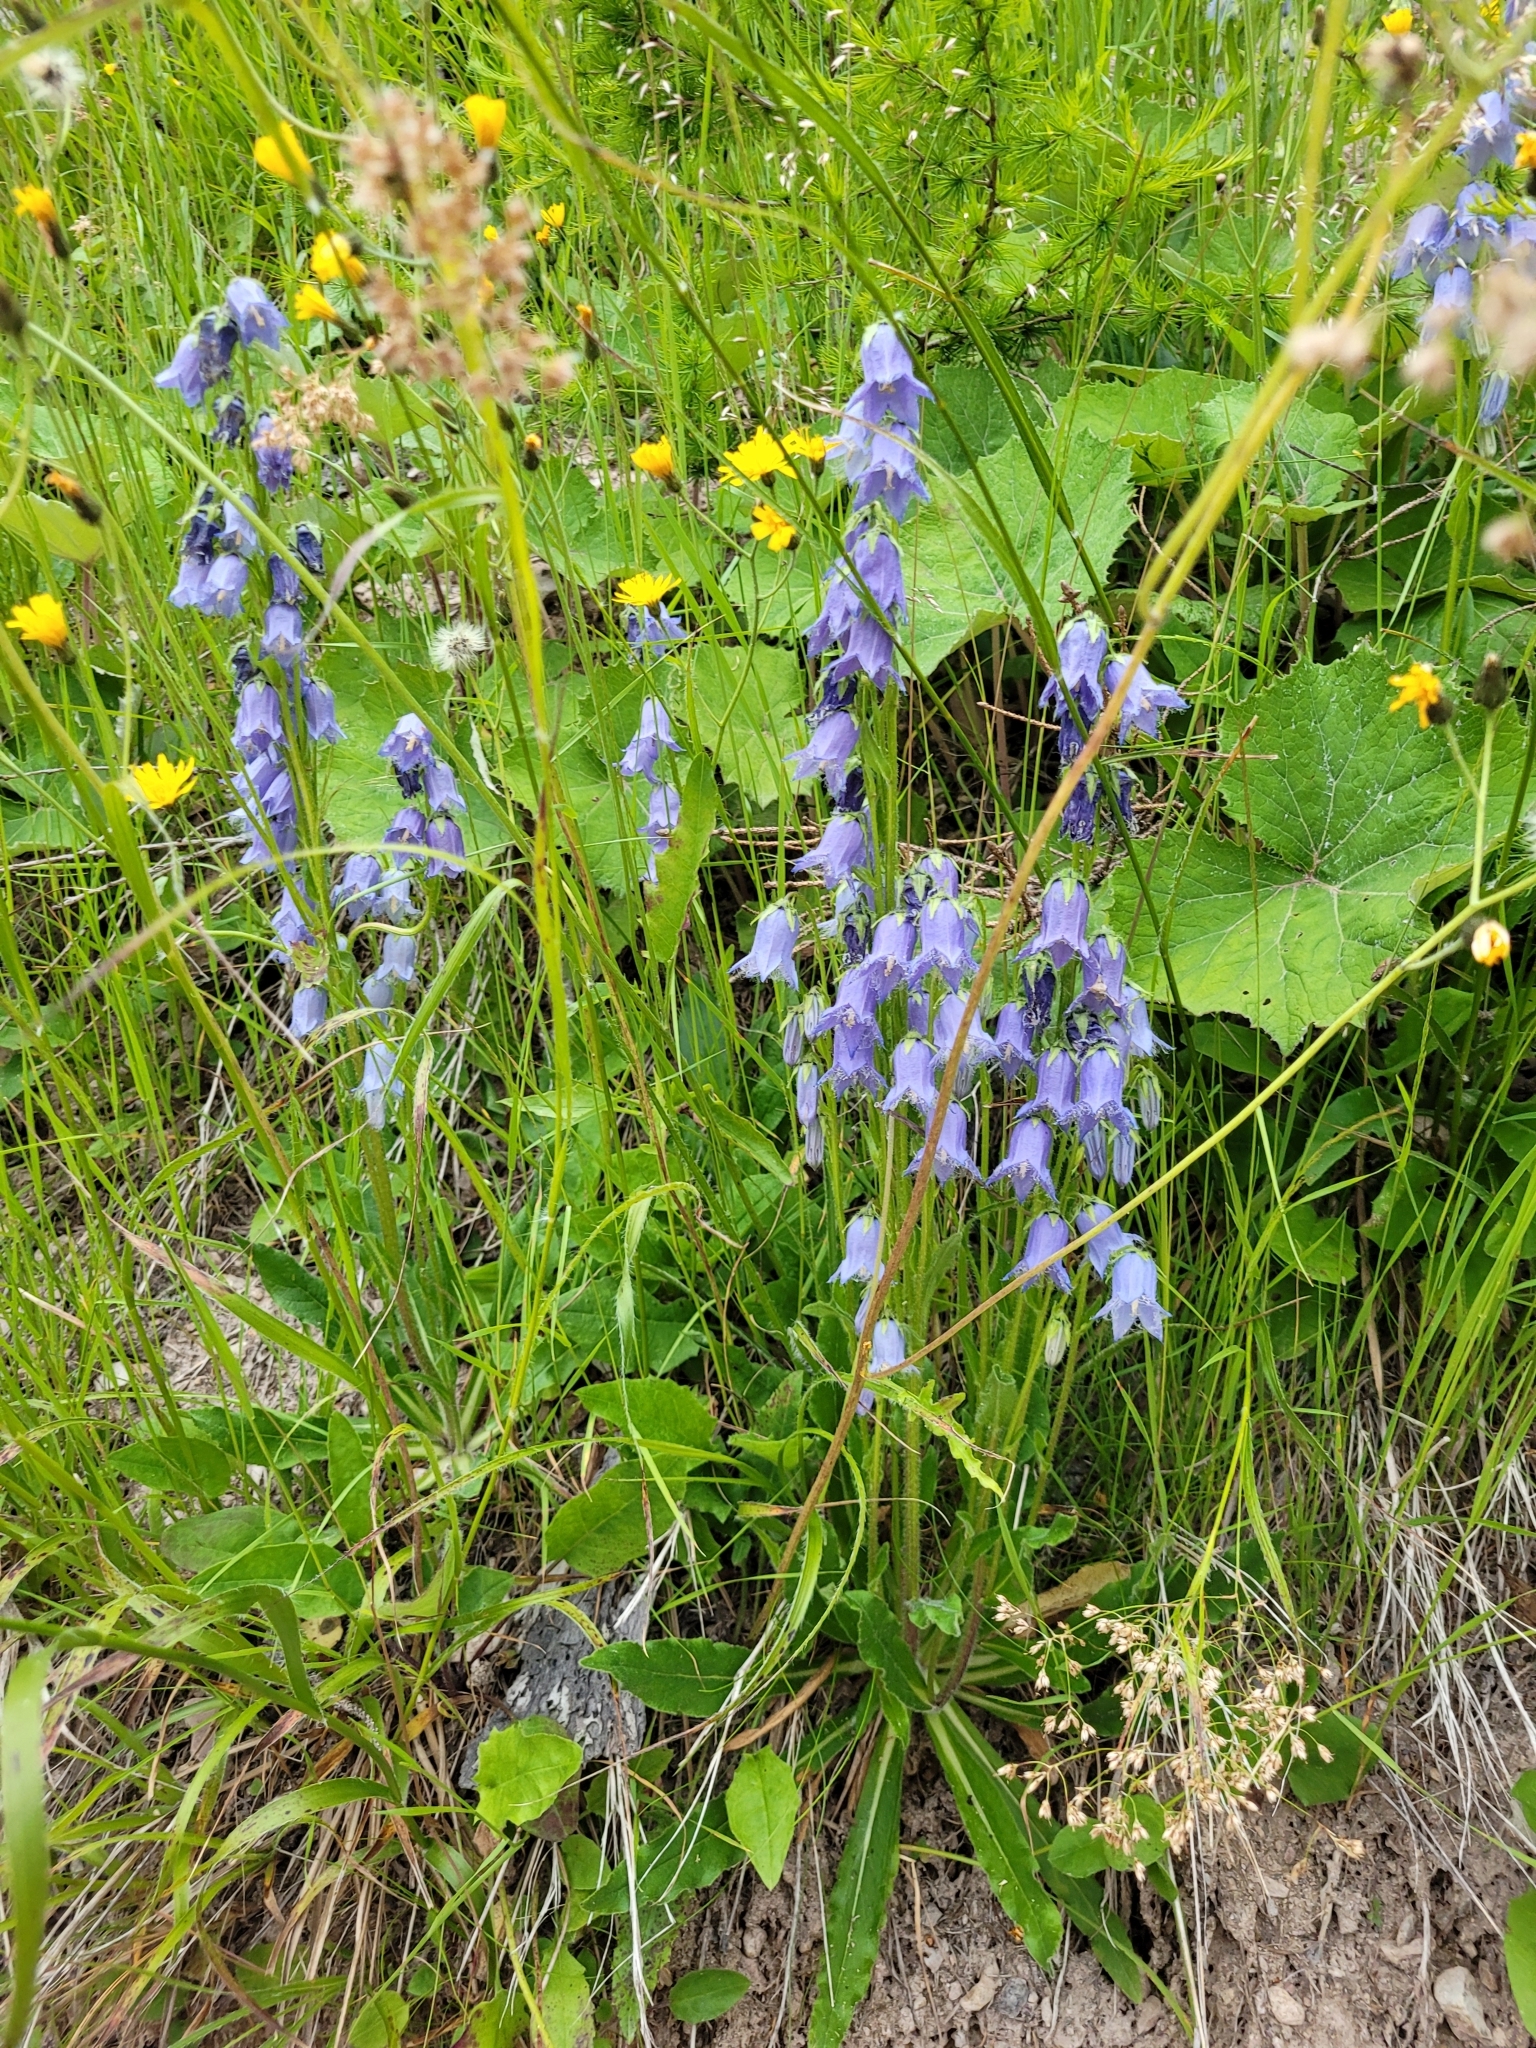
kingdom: Plantae
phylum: Tracheophyta
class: Magnoliopsida
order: Asterales
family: Campanulaceae
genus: Campanula
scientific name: Campanula barbata
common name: Bearded bellflower
